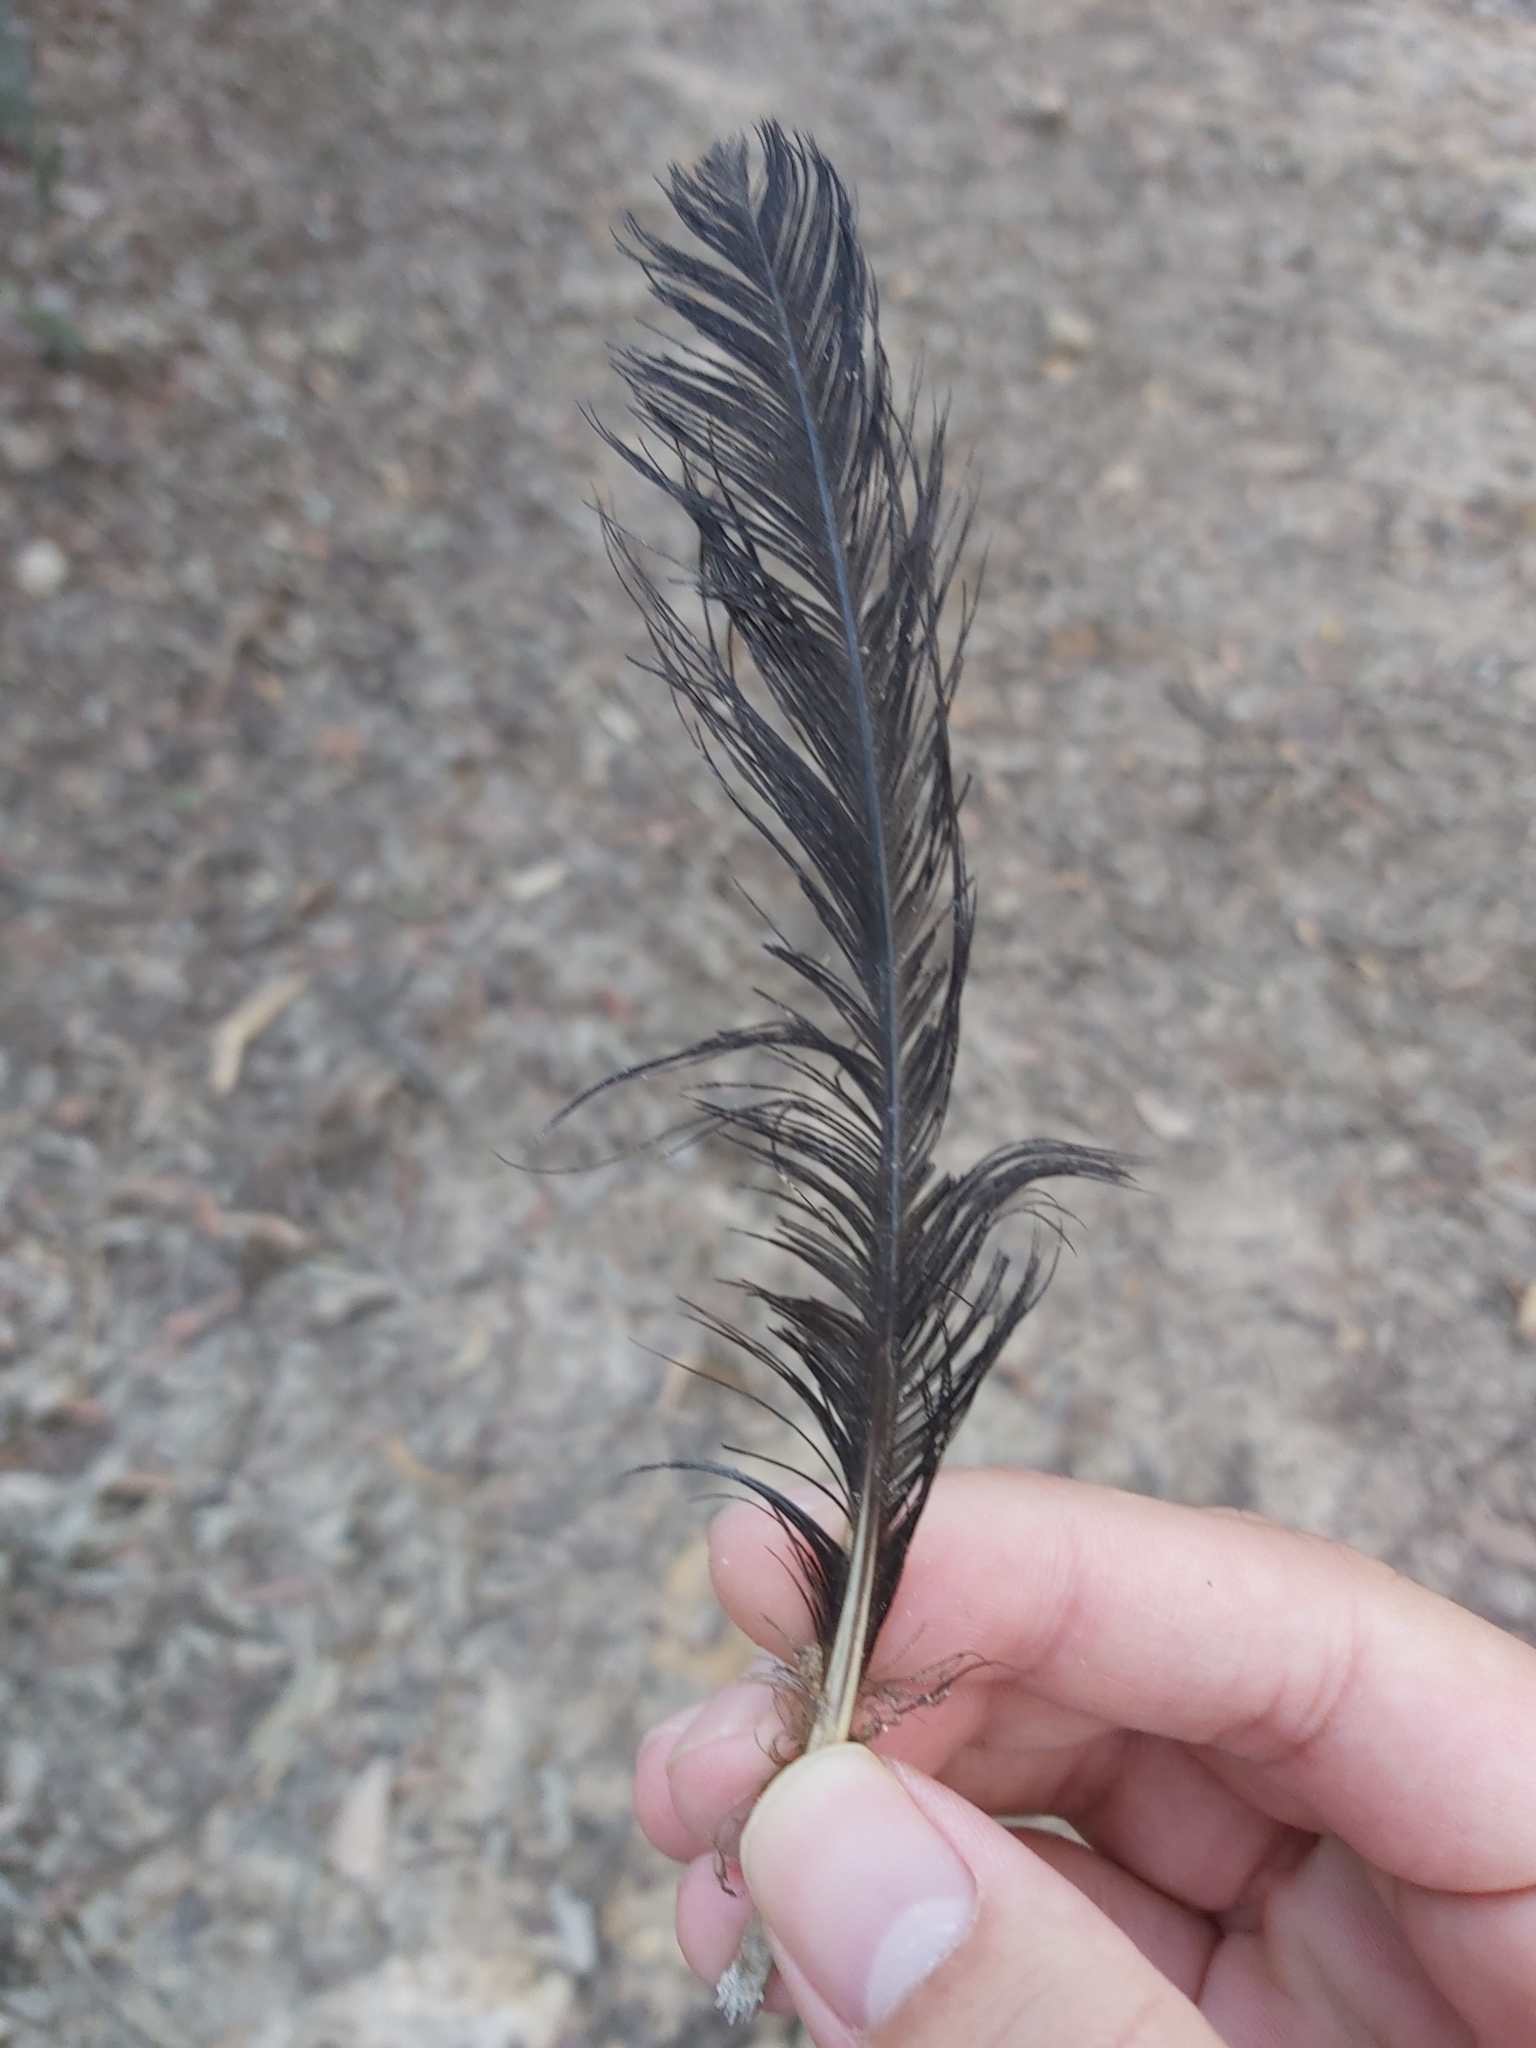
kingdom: Animalia
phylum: Chordata
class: Aves
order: Galliformes
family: Megapodiidae
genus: Alectura
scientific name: Alectura lathami
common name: Australian brushturkey
